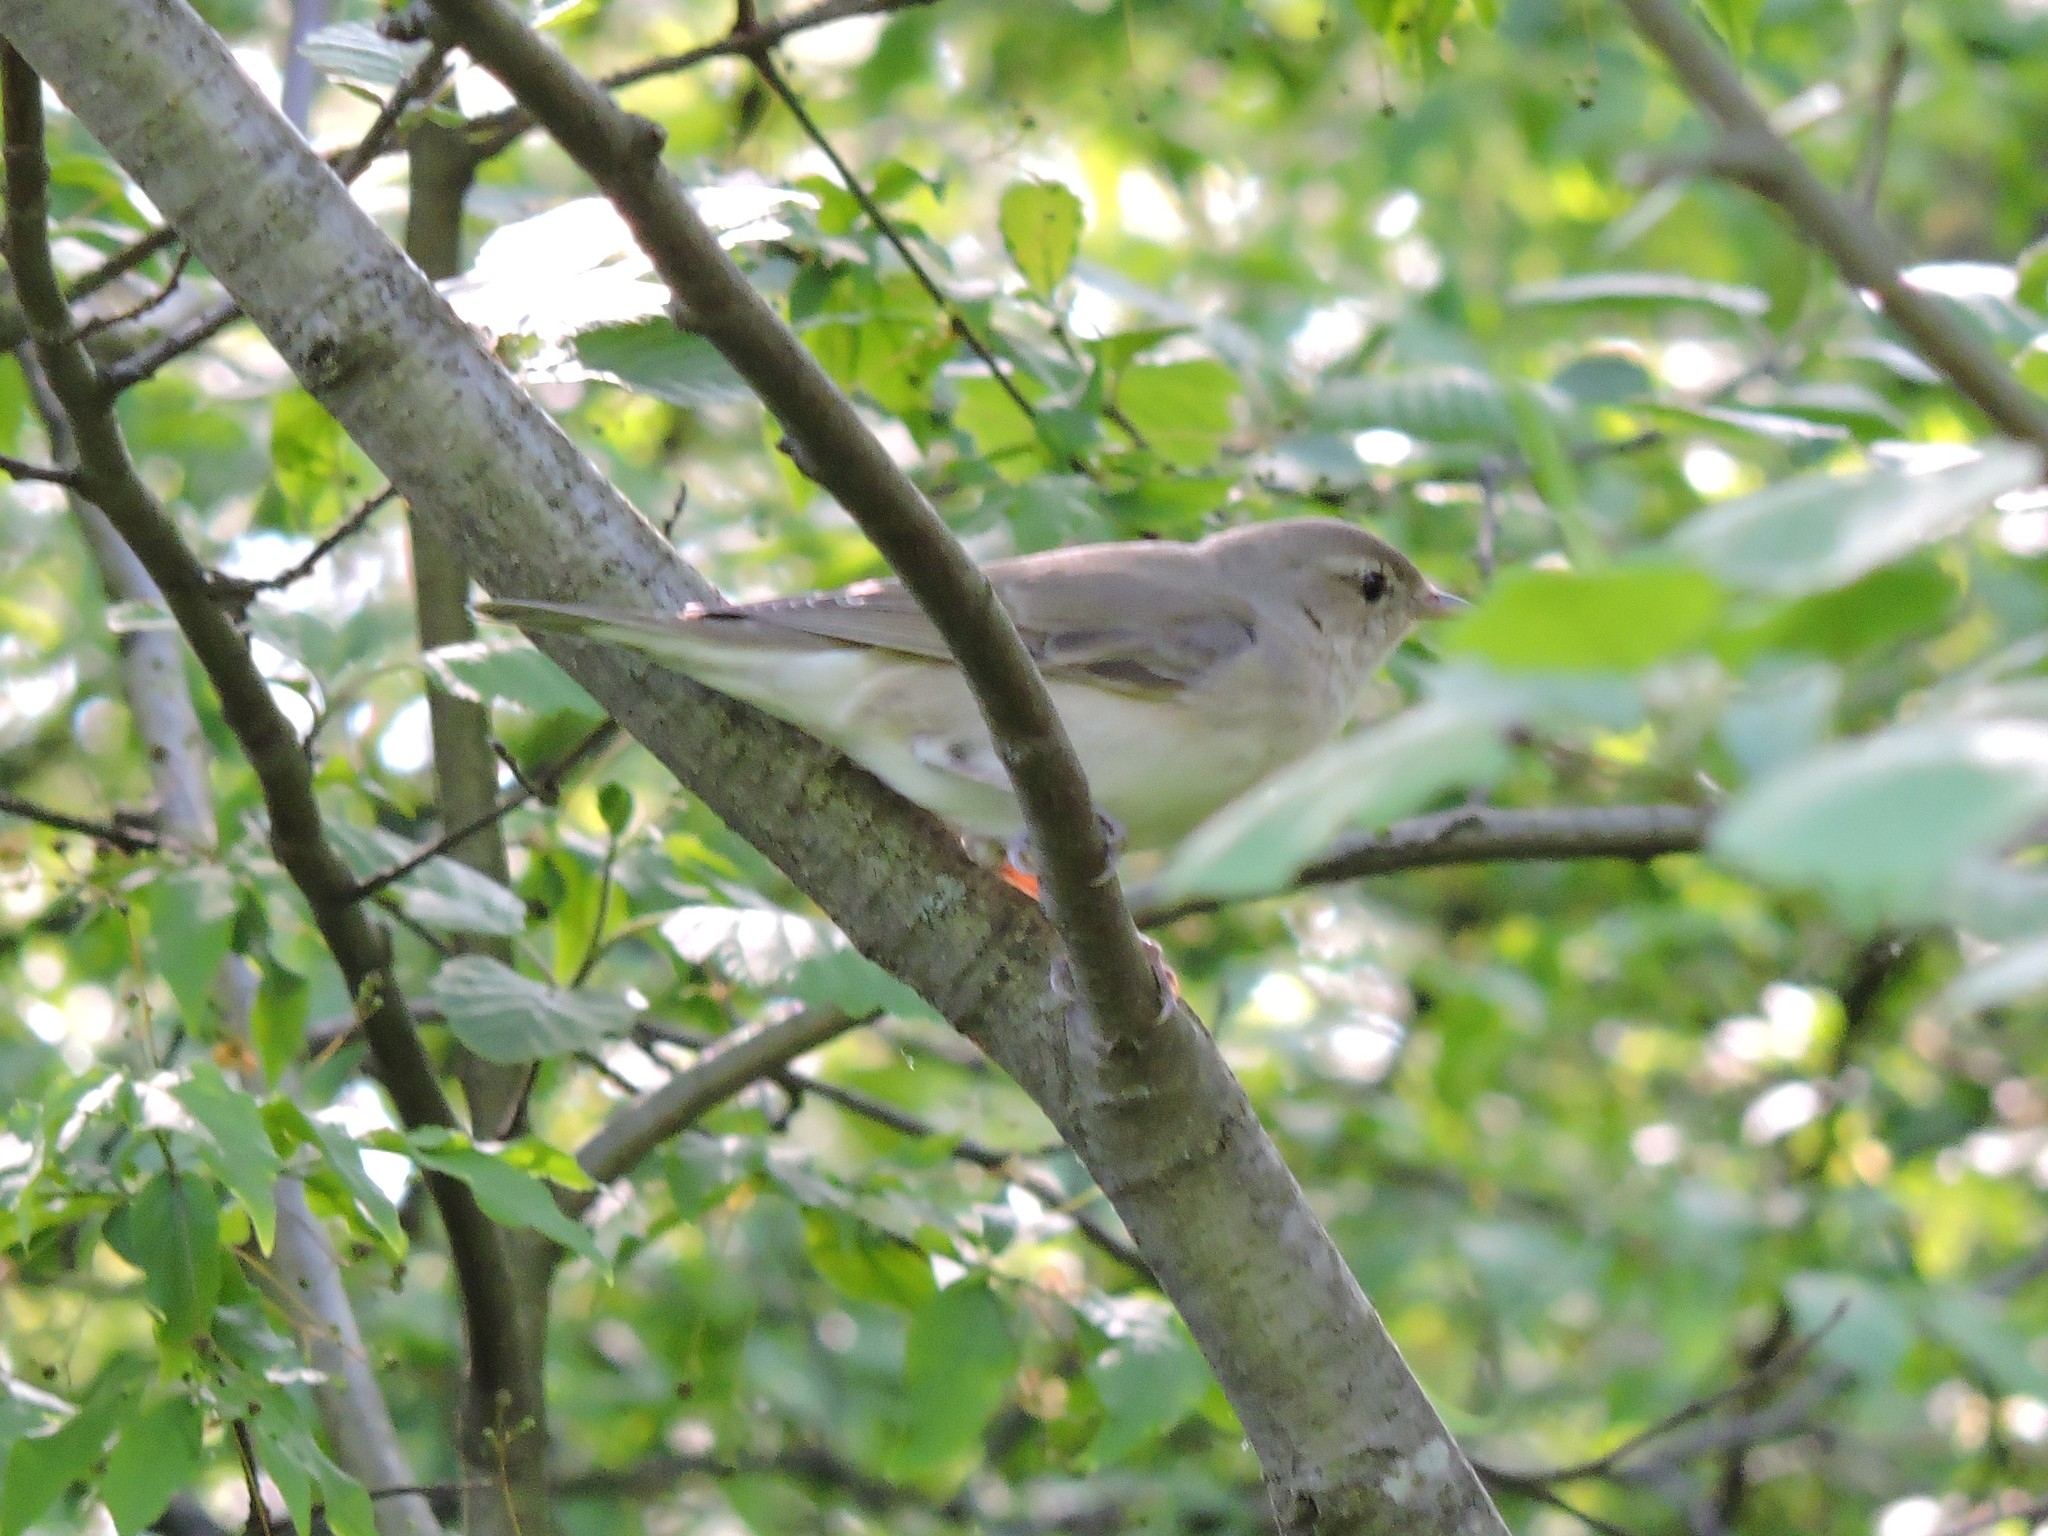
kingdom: Animalia
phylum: Chordata
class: Aves
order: Passeriformes
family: Sylviidae
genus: Sylvia
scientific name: Sylvia borin
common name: Garden warbler
